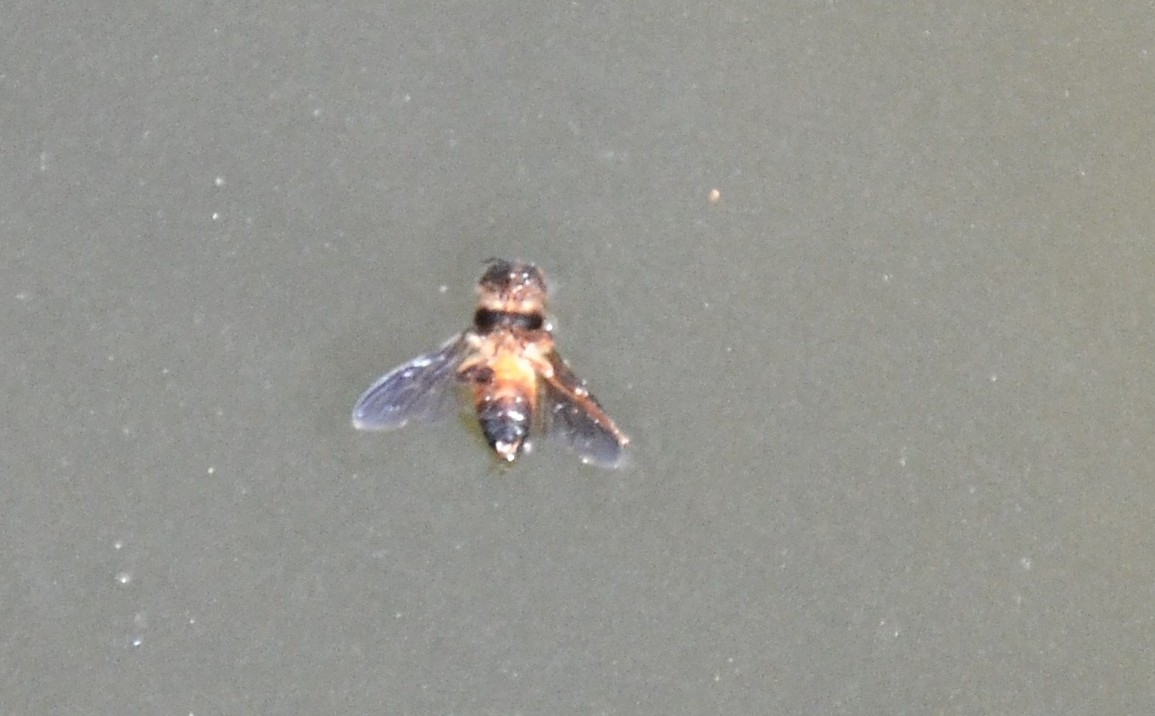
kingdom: Animalia
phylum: Arthropoda
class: Insecta
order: Hymenoptera
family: Apidae
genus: Apis
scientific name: Apis dorsata
